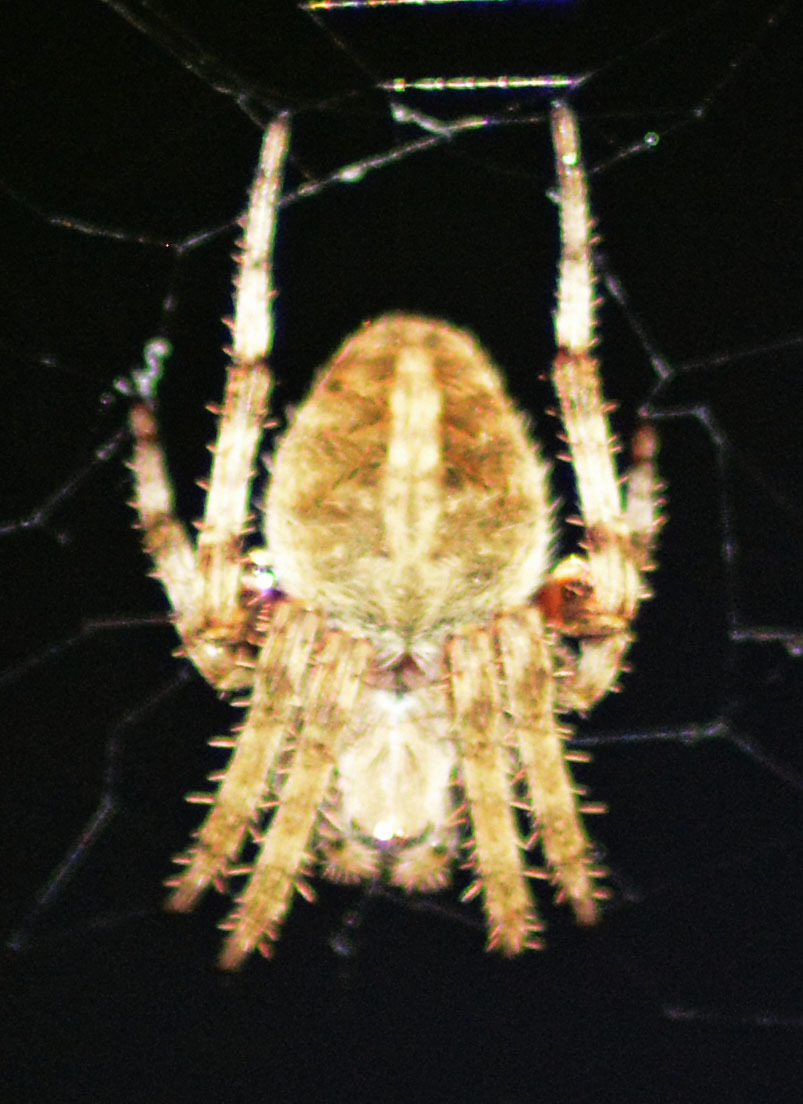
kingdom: Animalia
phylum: Arthropoda
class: Arachnida
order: Araneae
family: Araneidae
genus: Neoscona
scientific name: Neoscona crucifera
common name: Spotted orbweaver
